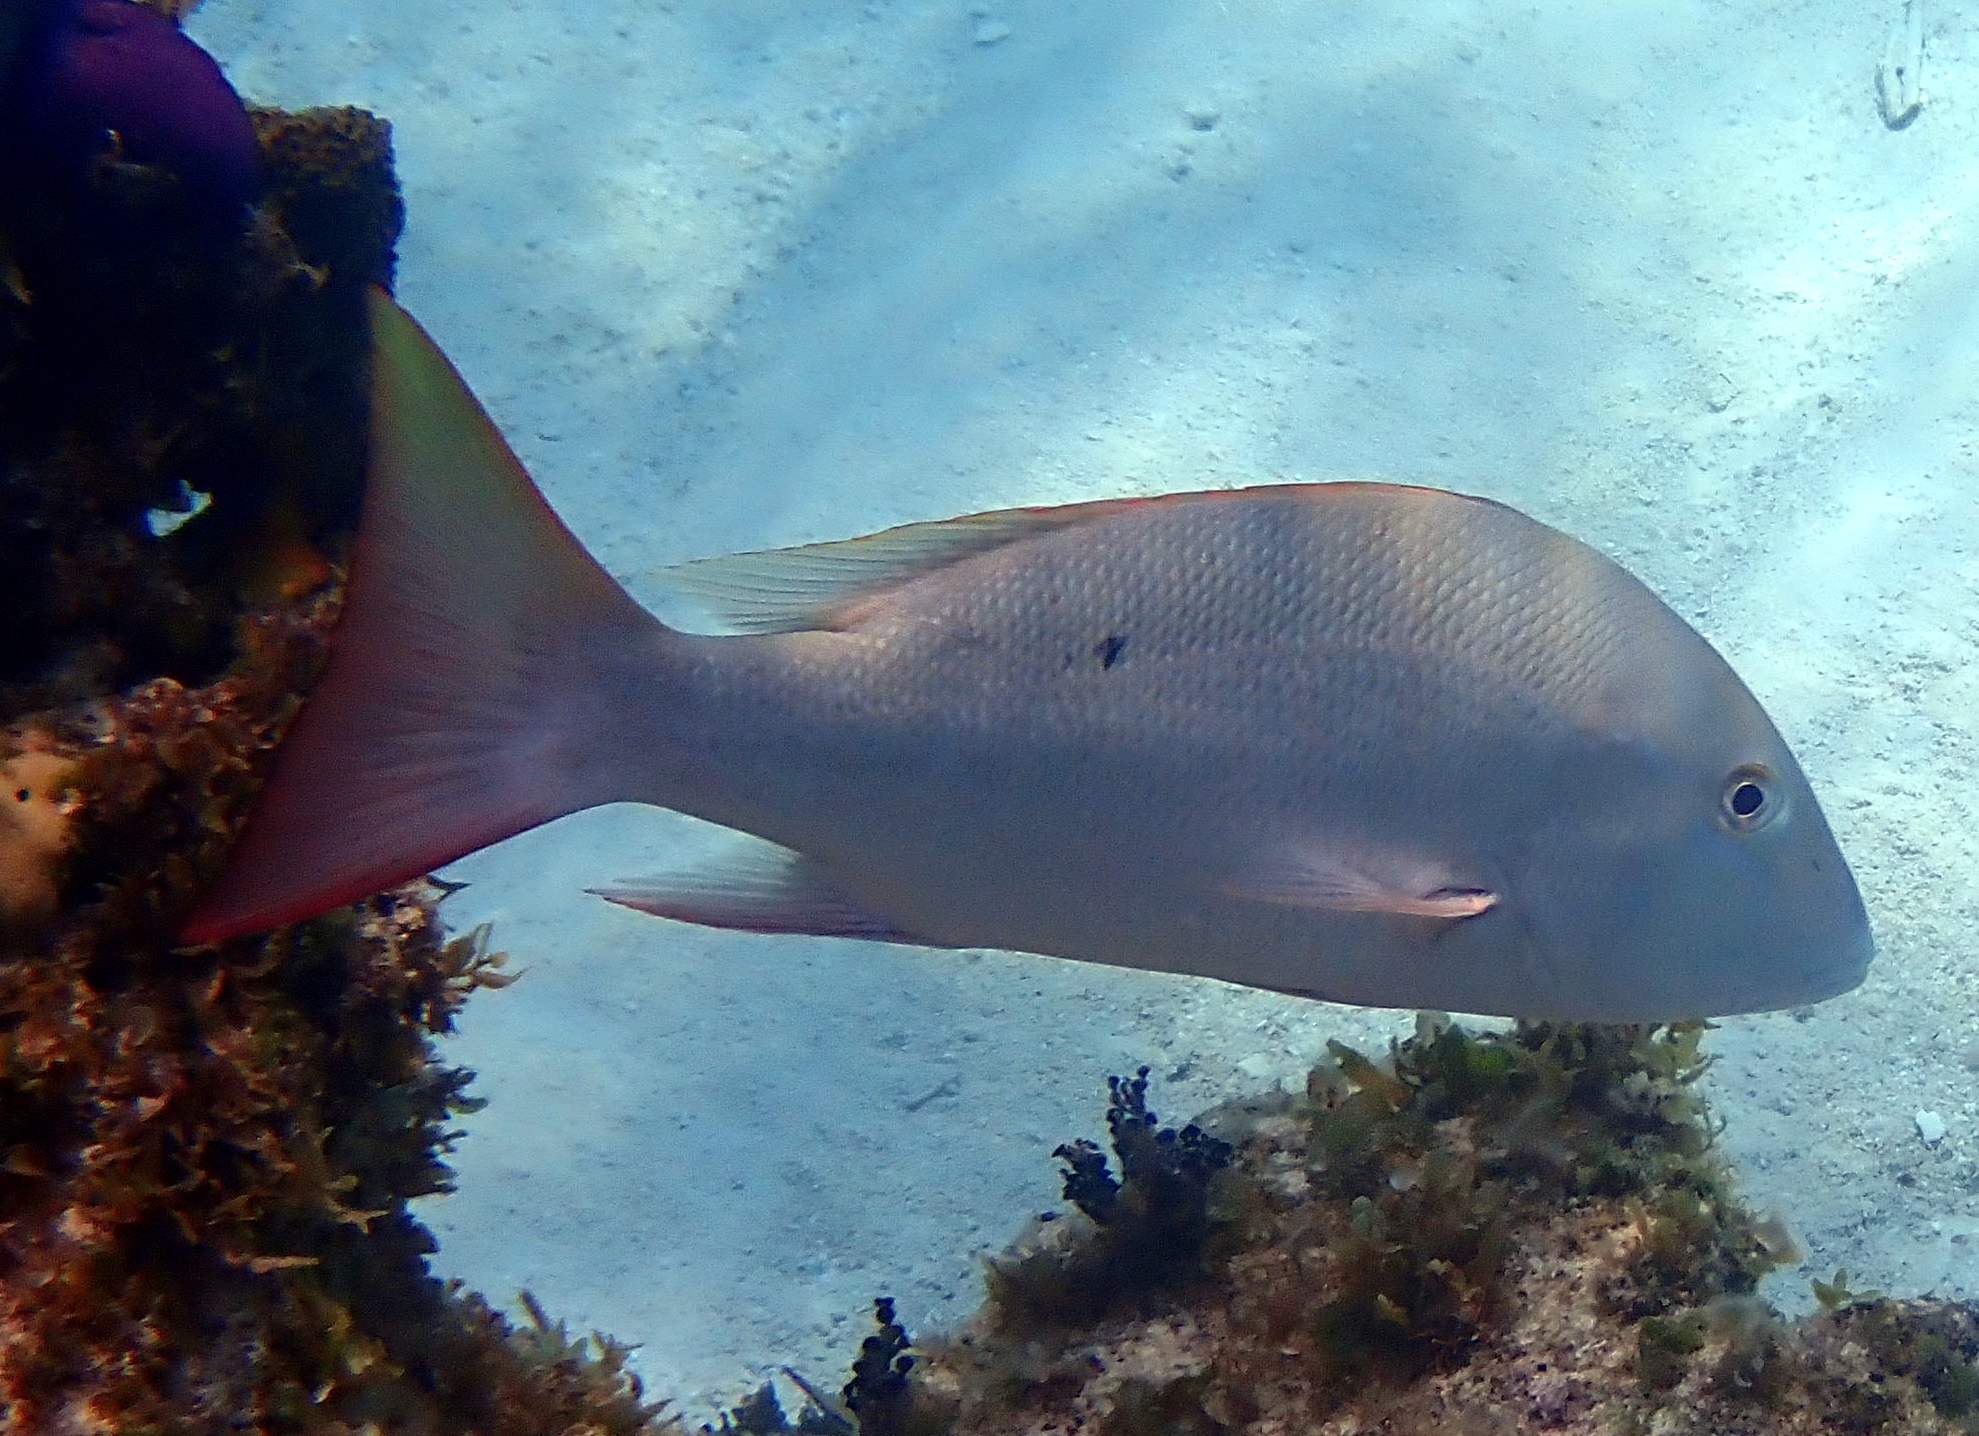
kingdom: Animalia
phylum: Chordata
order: Perciformes
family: Lutjanidae
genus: Lutjanus
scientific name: Lutjanus analis
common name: Mutton snapper
